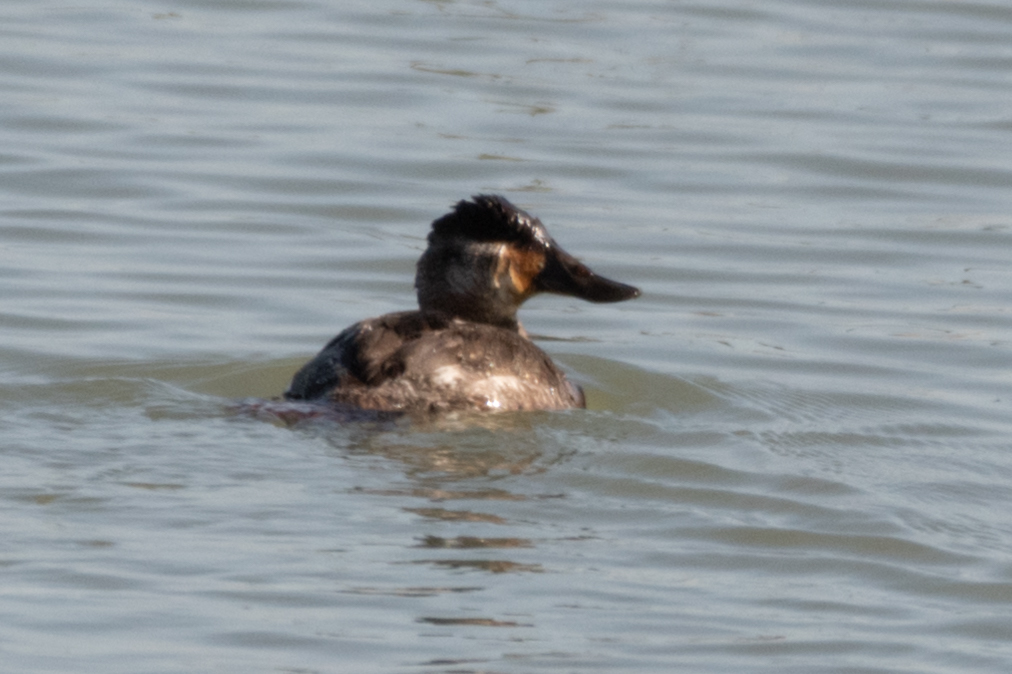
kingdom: Animalia
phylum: Chordata
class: Aves
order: Anseriformes
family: Anatidae
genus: Oxyura
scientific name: Oxyura jamaicensis
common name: Ruddy duck
